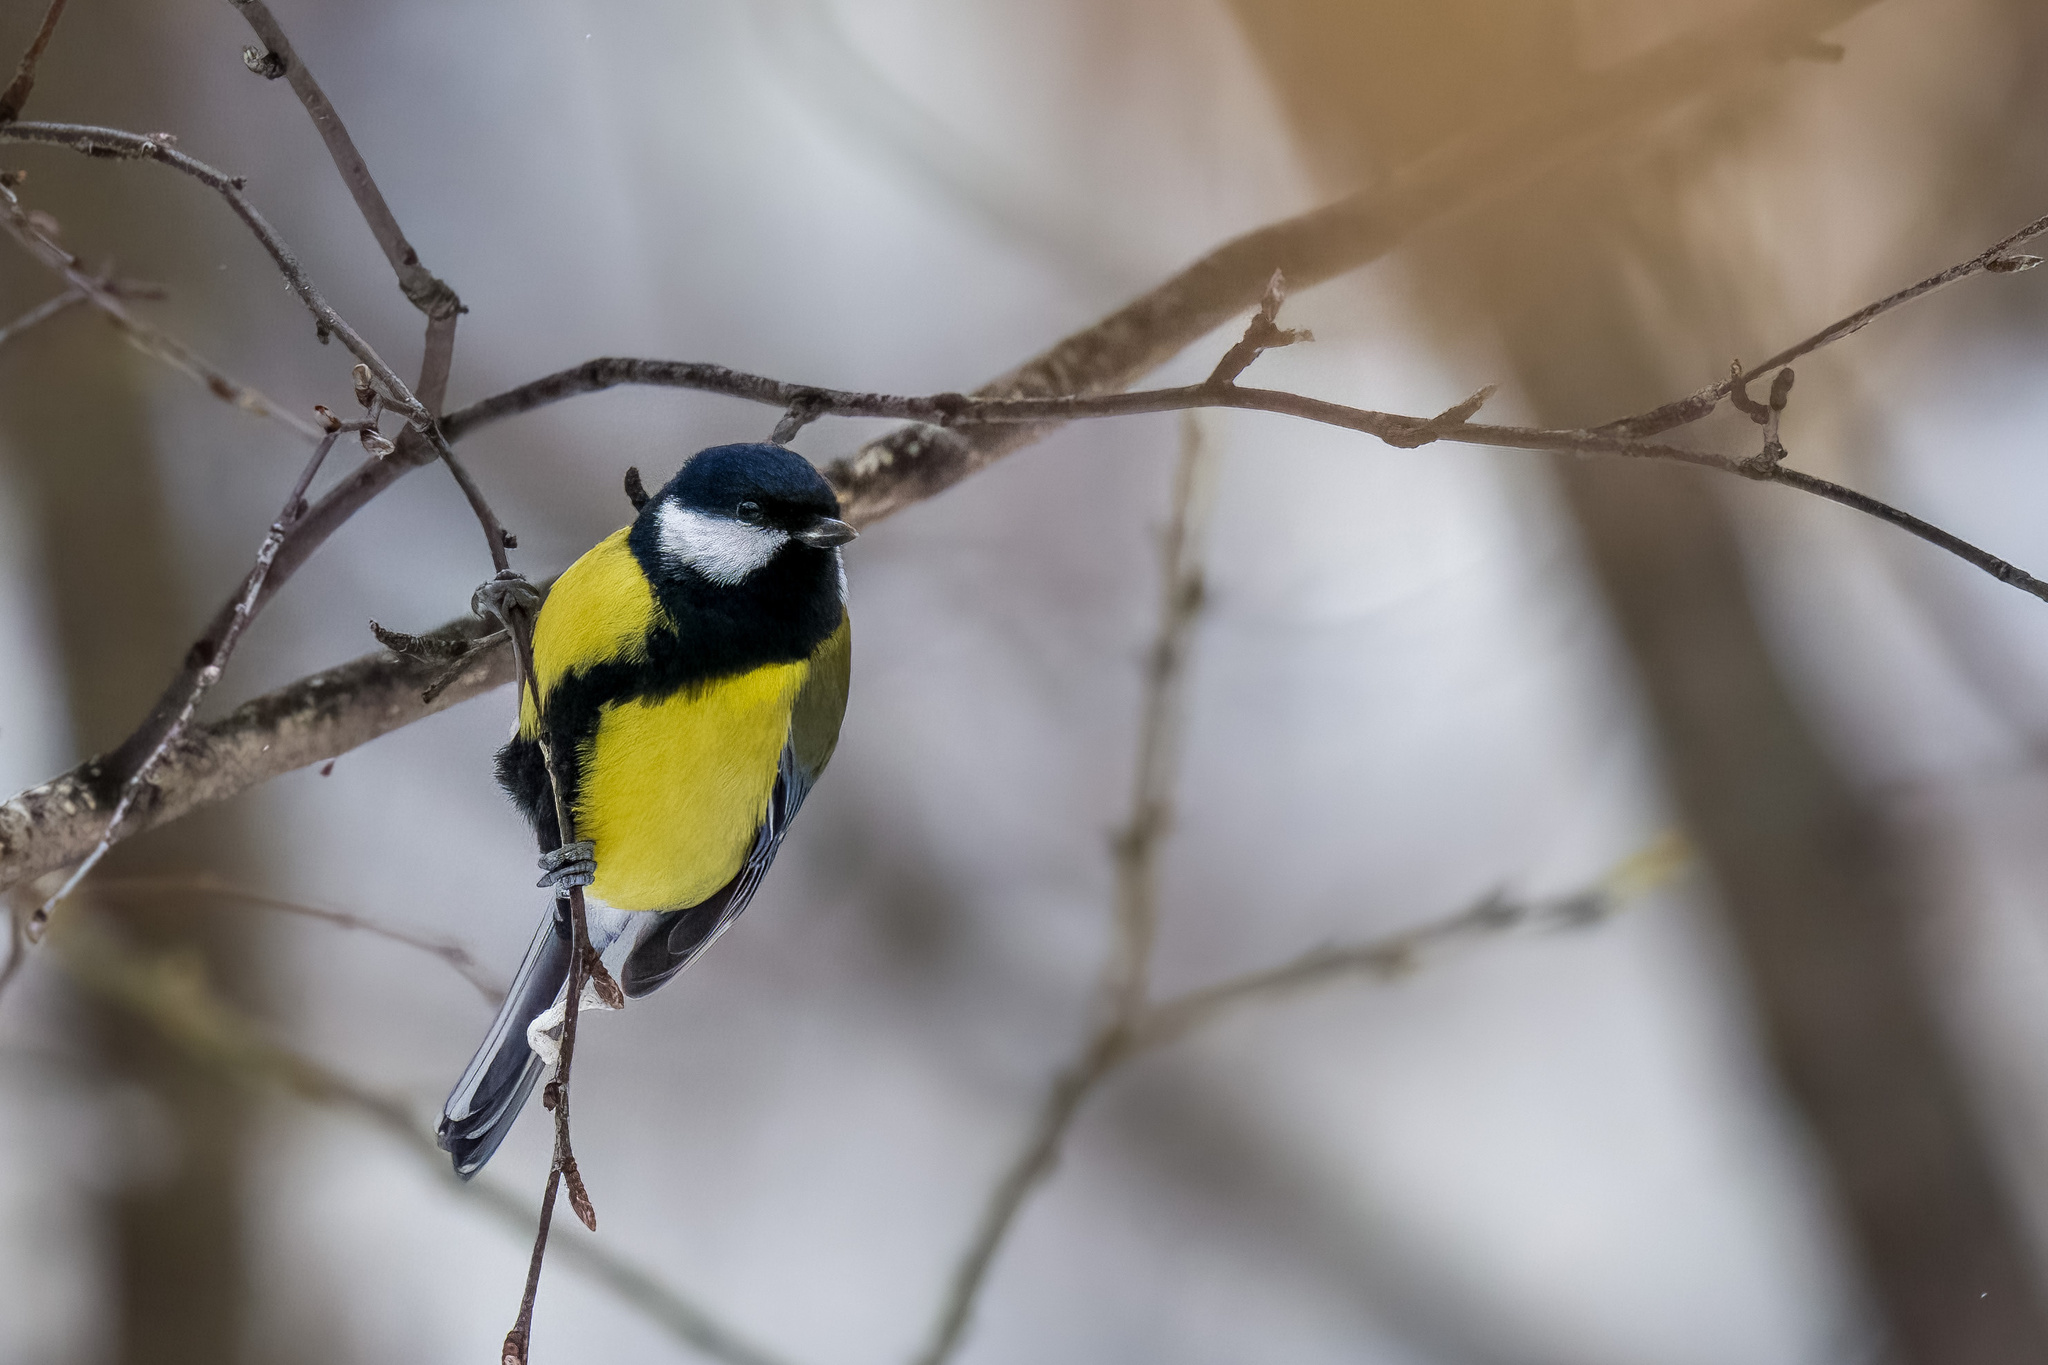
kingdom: Animalia
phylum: Chordata
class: Aves
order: Passeriformes
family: Paridae
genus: Parus
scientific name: Parus major
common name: Great tit
